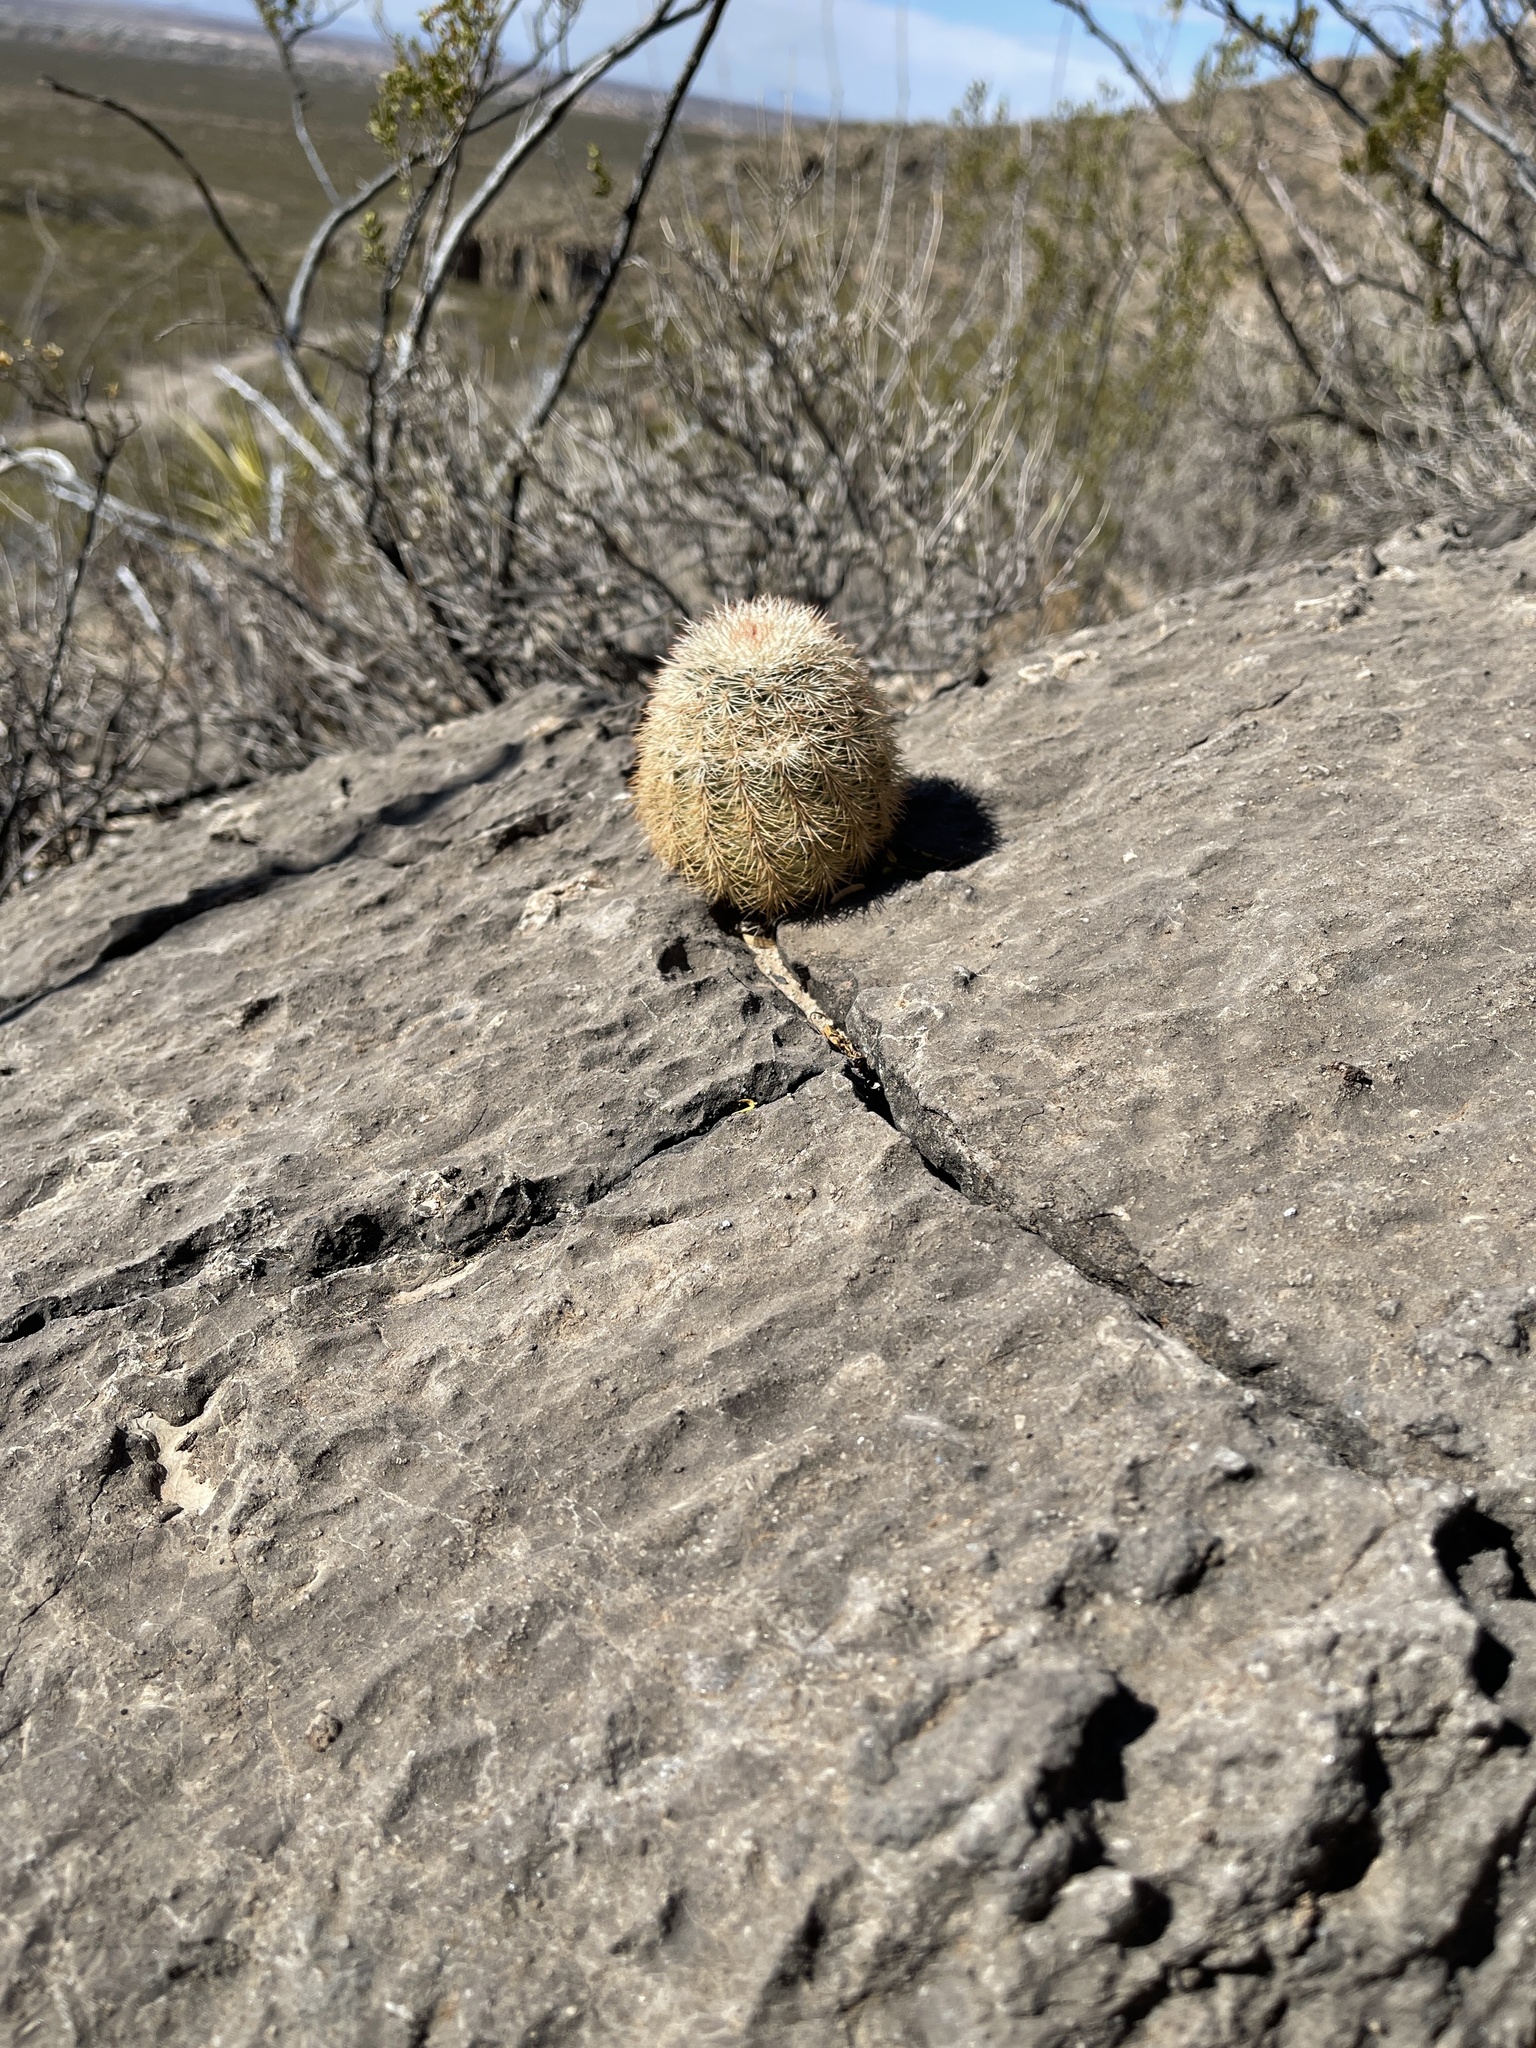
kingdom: Plantae
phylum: Tracheophyta
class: Magnoliopsida
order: Caryophyllales
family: Cactaceae
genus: Echinocereus
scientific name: Echinocereus dasyacanthus
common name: Spiny hedgehog cactus
